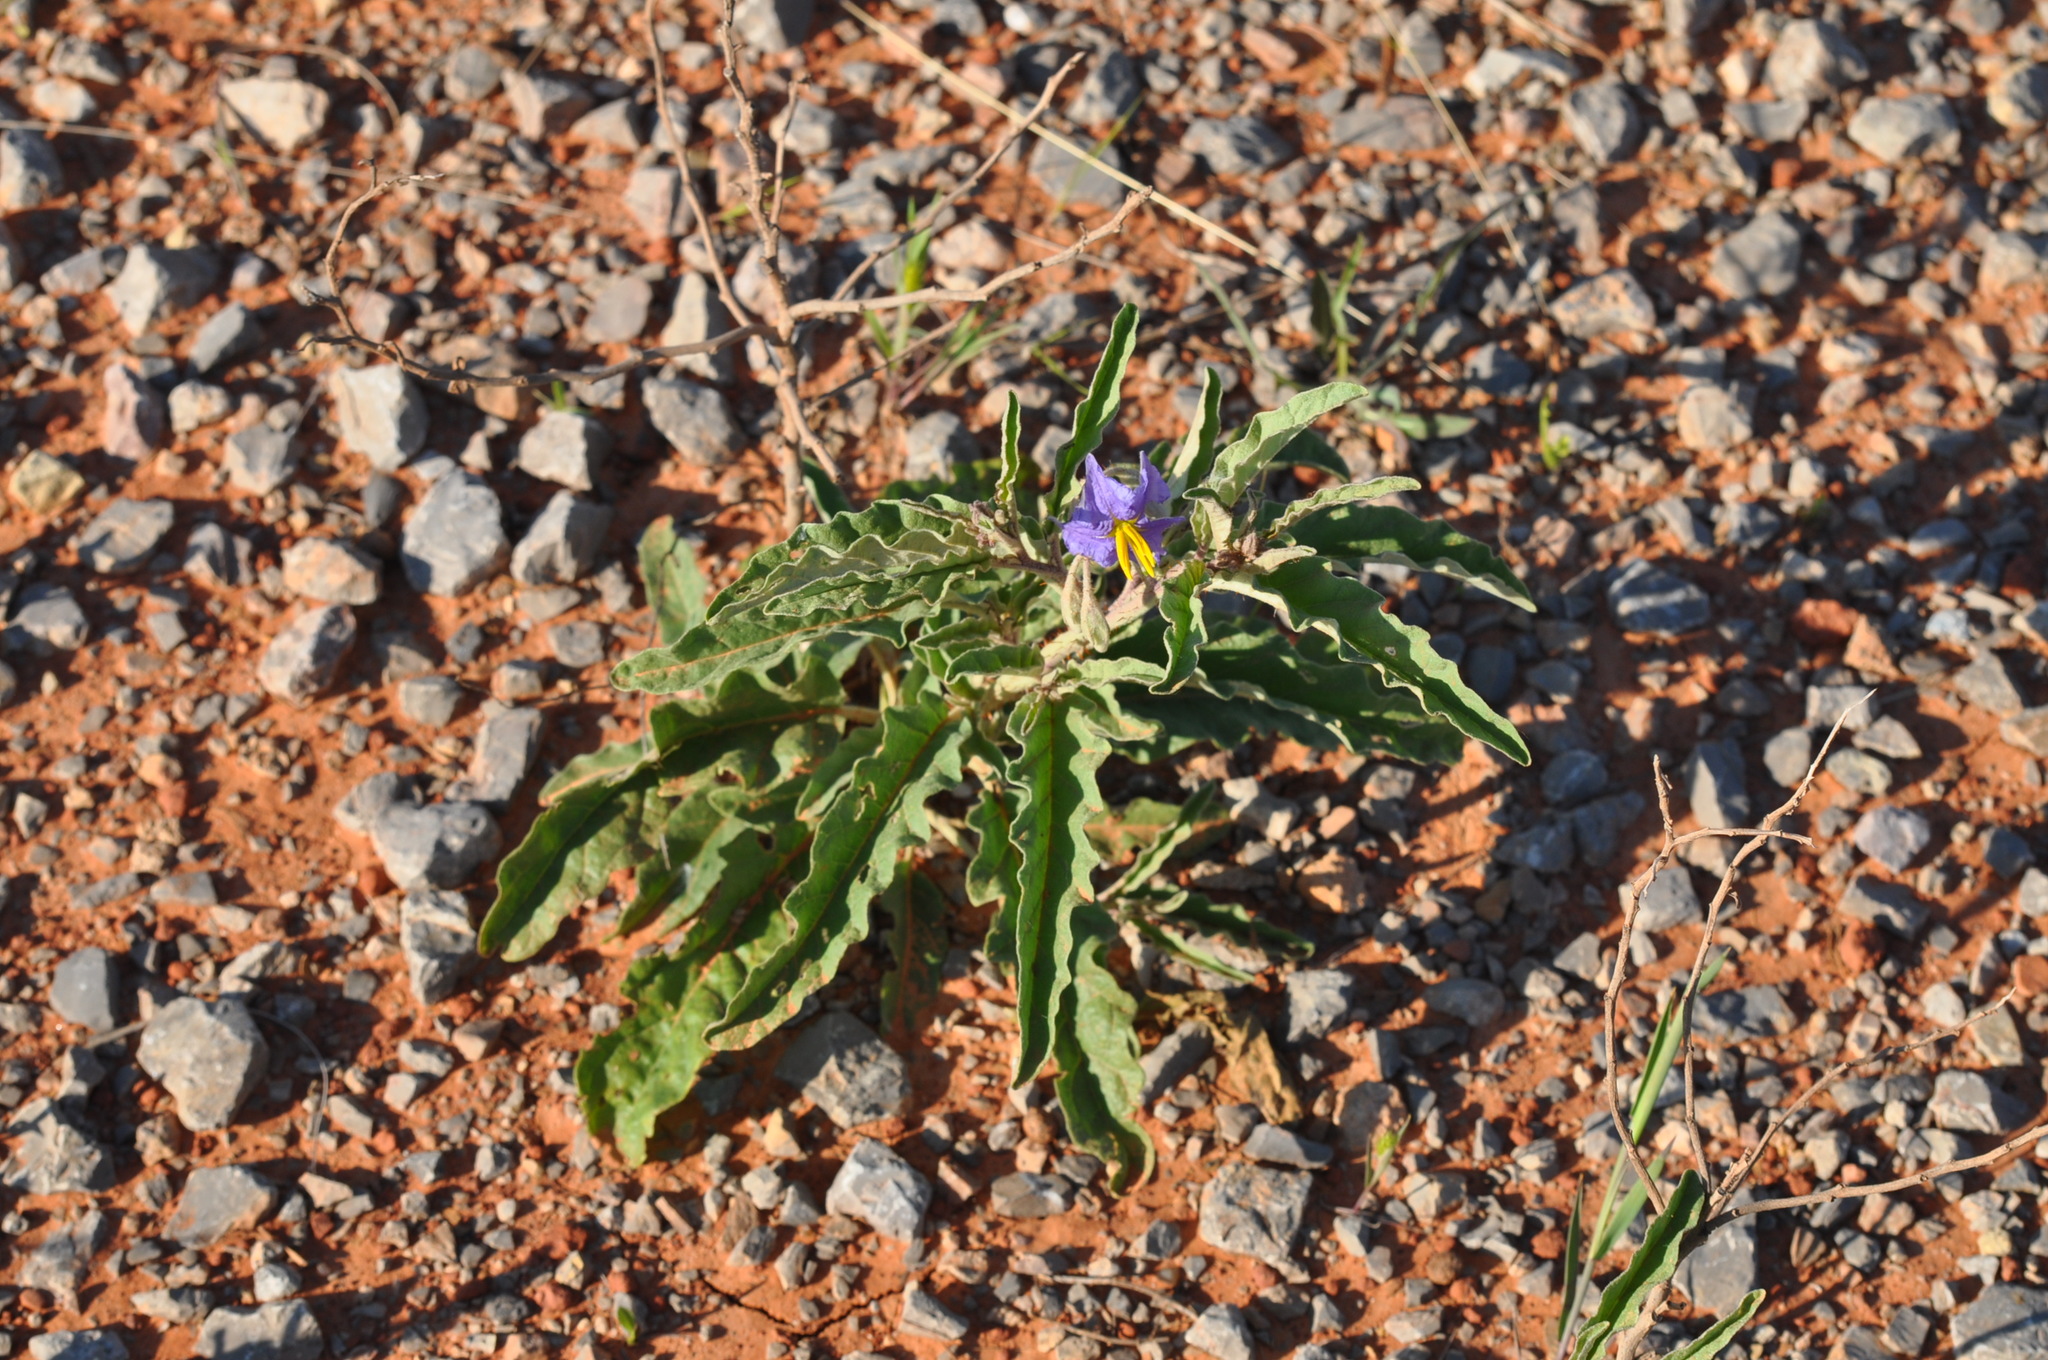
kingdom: Plantae
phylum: Tracheophyta
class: Magnoliopsida
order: Solanales
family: Solanaceae
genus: Solanum
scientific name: Solanum elaeagnifolium
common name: Silverleaf nightshade
